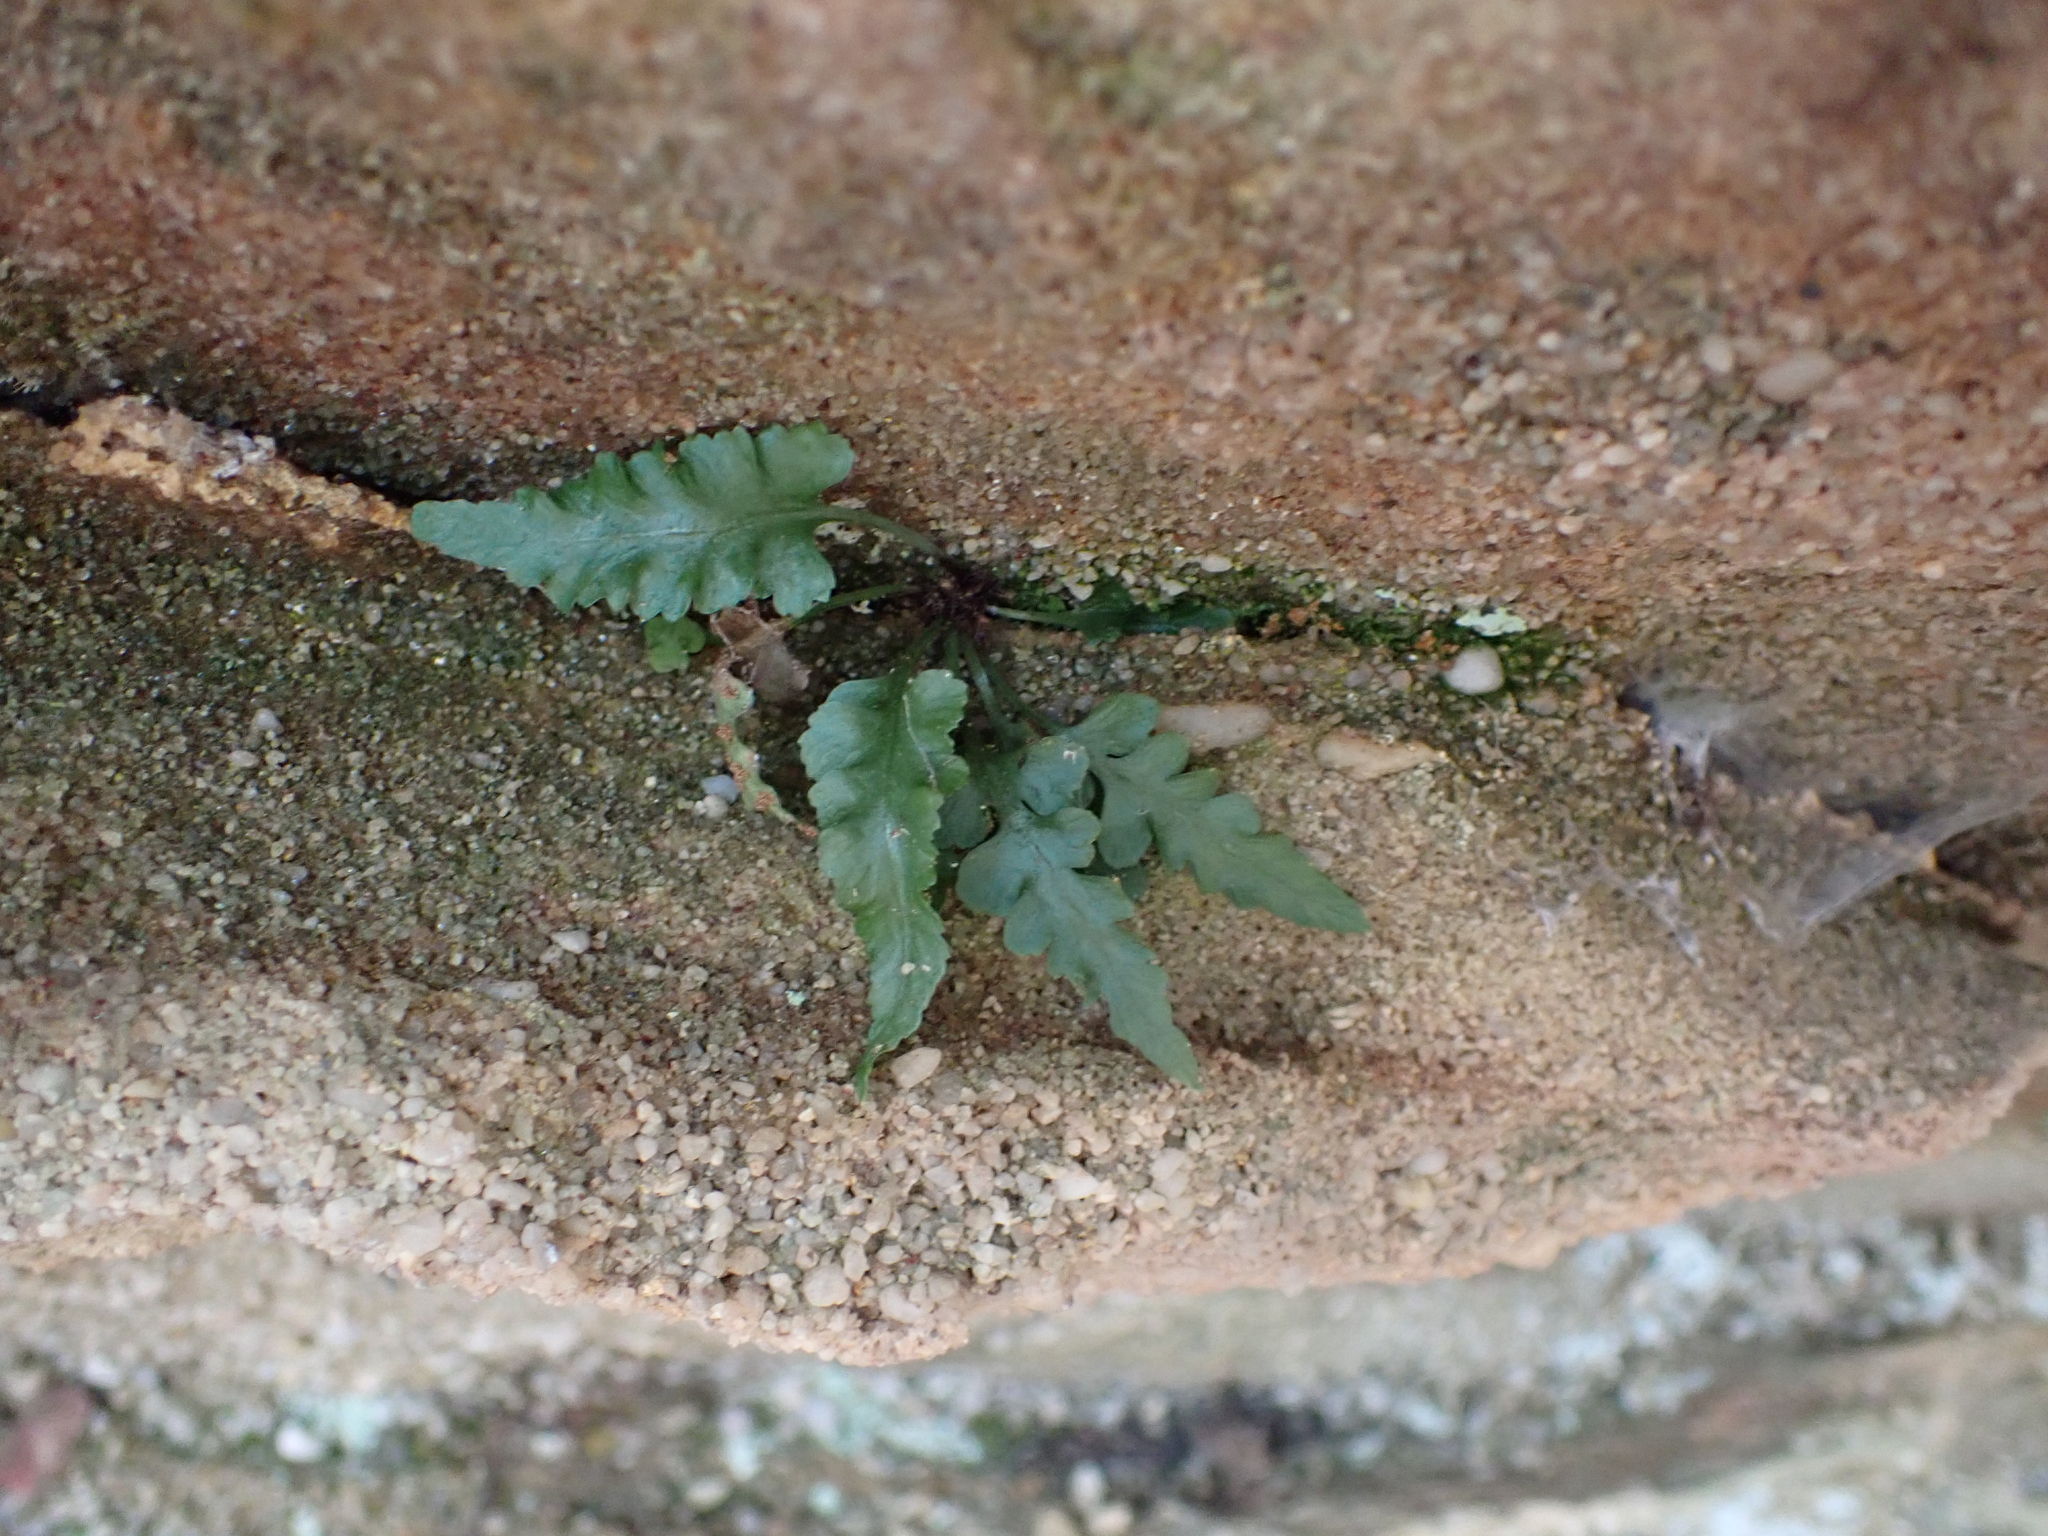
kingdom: Plantae
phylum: Tracheophyta
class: Polypodiopsida
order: Polypodiales
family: Aspleniaceae
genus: Asplenium
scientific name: Asplenium pinnatifidum
